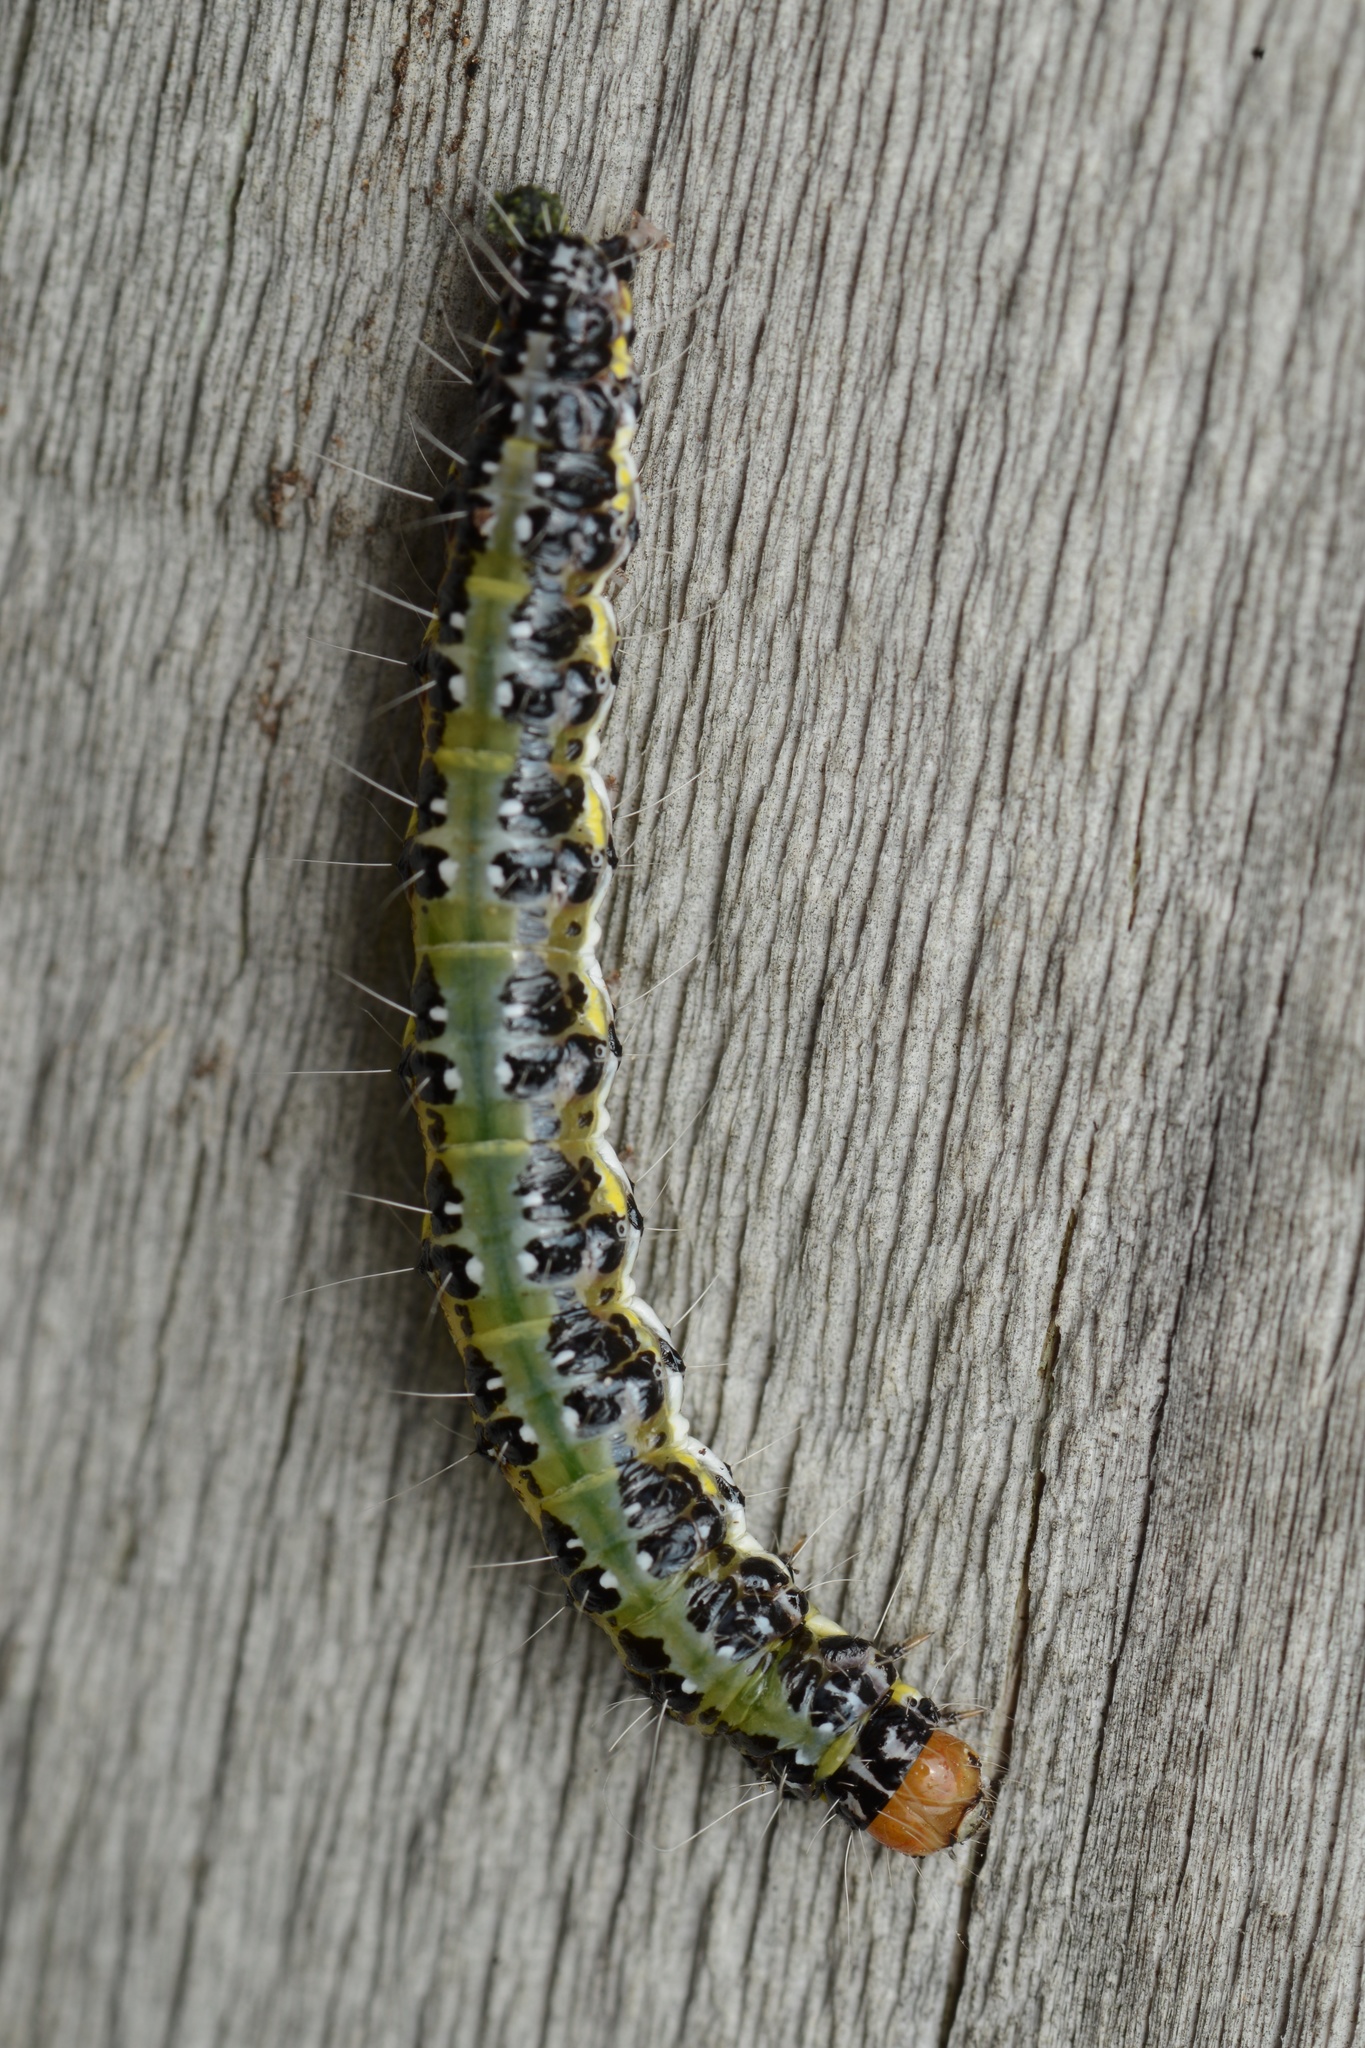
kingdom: Animalia
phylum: Arthropoda
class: Insecta
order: Lepidoptera
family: Crambidae
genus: Uresiphita
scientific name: Uresiphita
